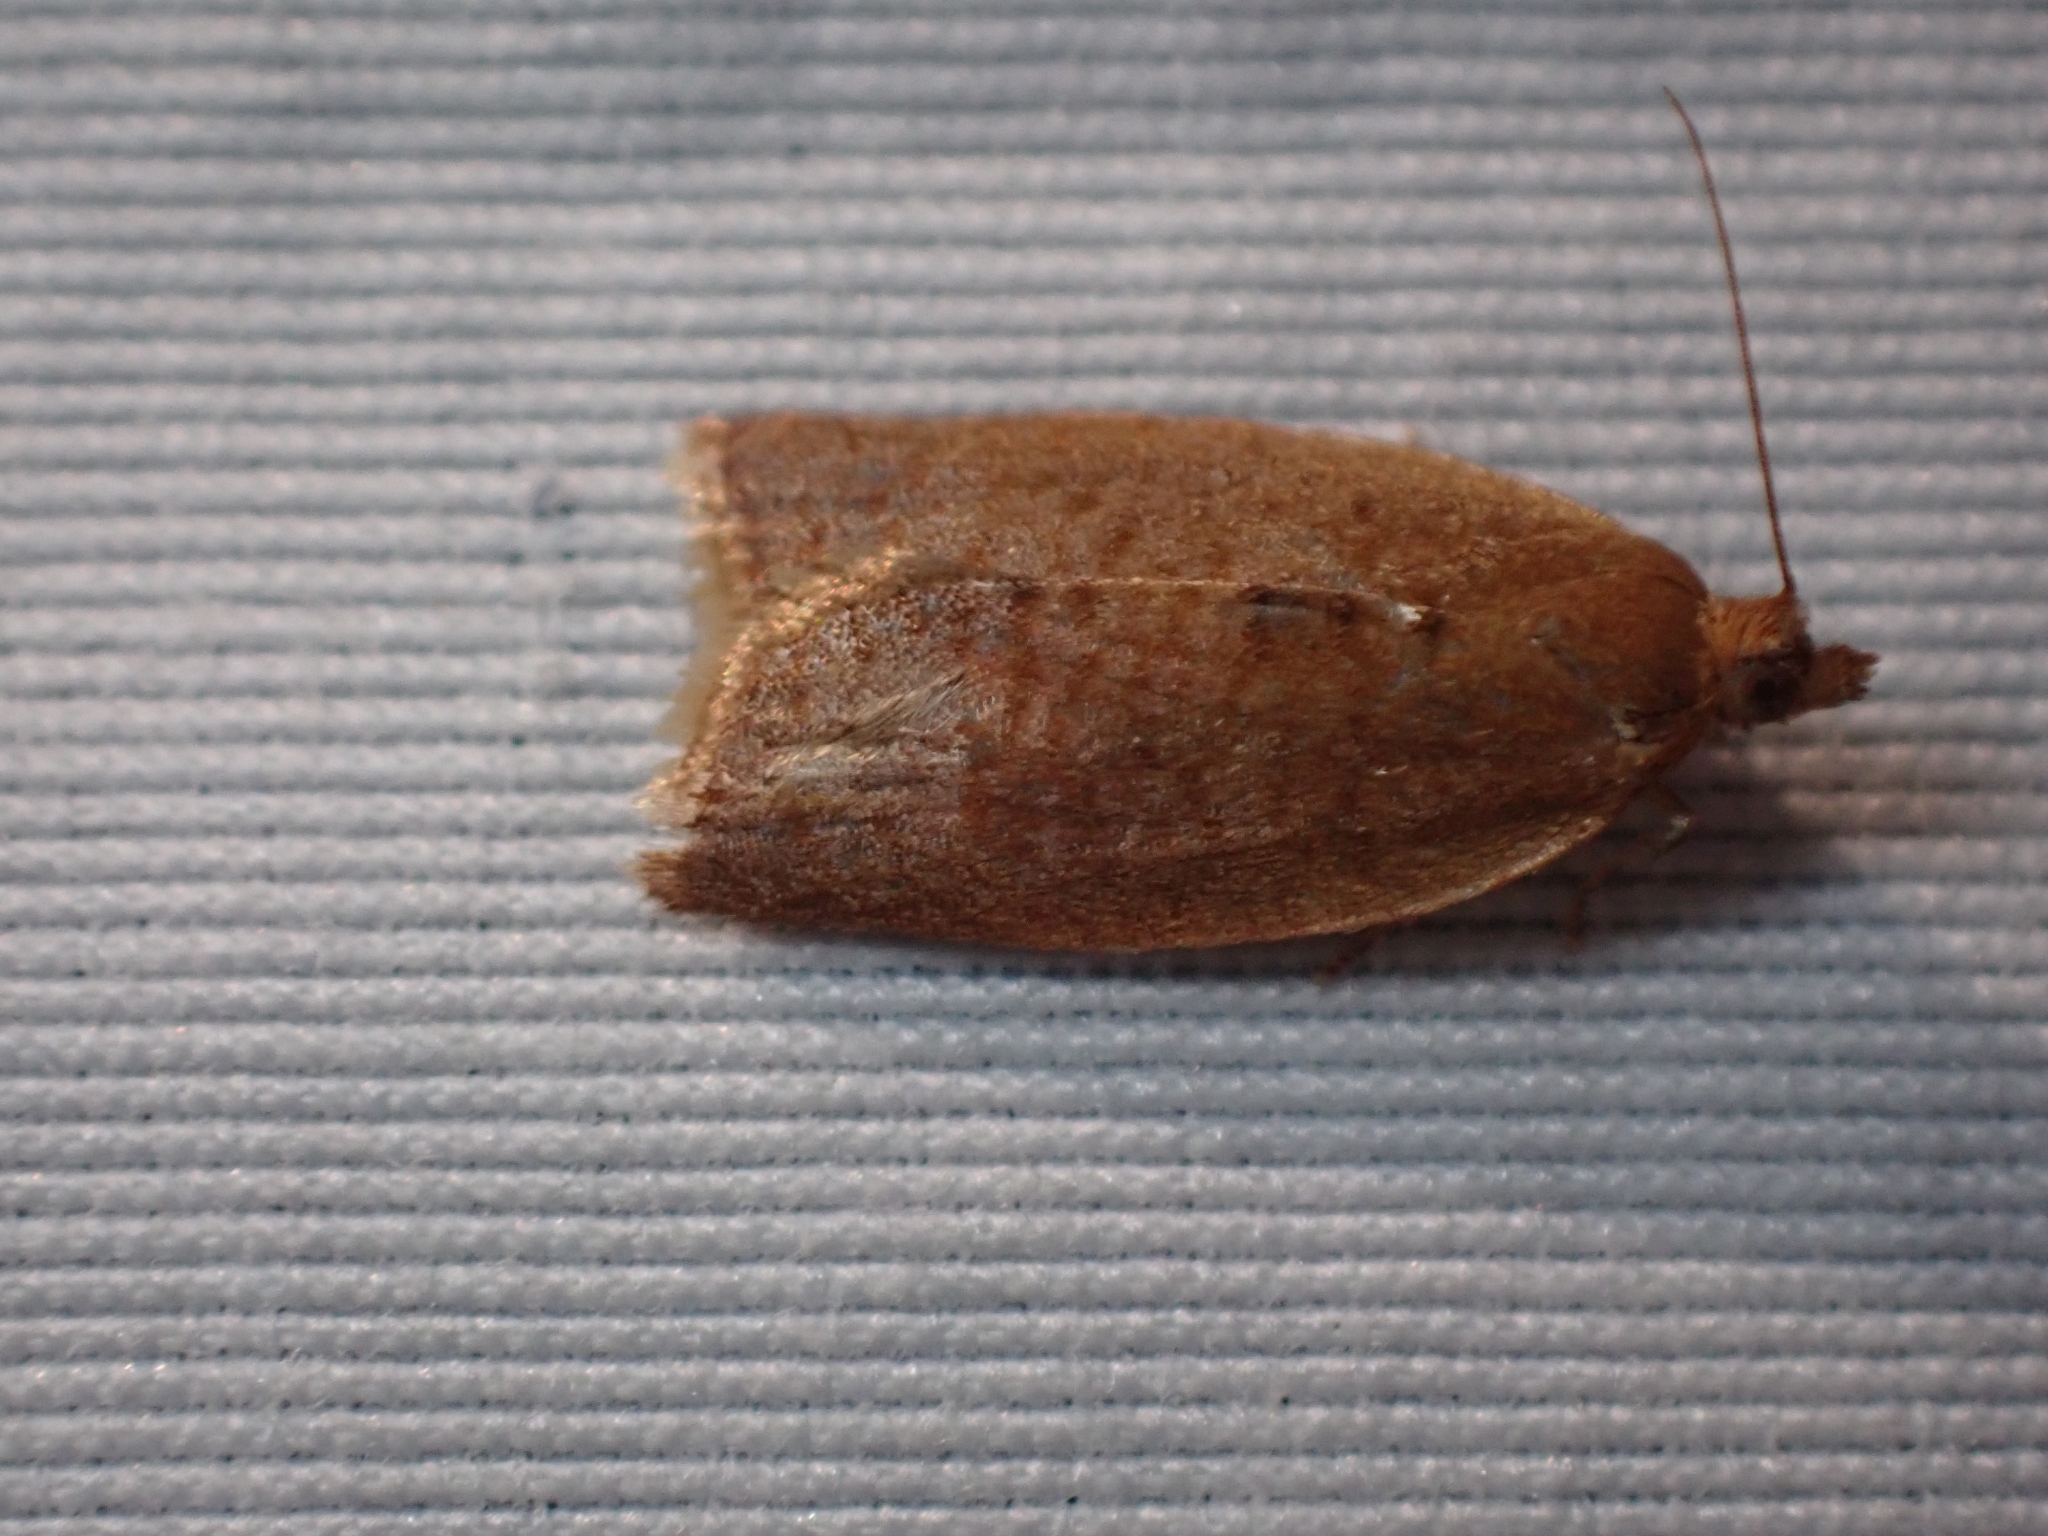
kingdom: Animalia
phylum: Arthropoda
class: Insecta
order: Lepidoptera
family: Tortricidae
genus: Clepsis
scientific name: Clepsis consimilana
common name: Privet tortrix
